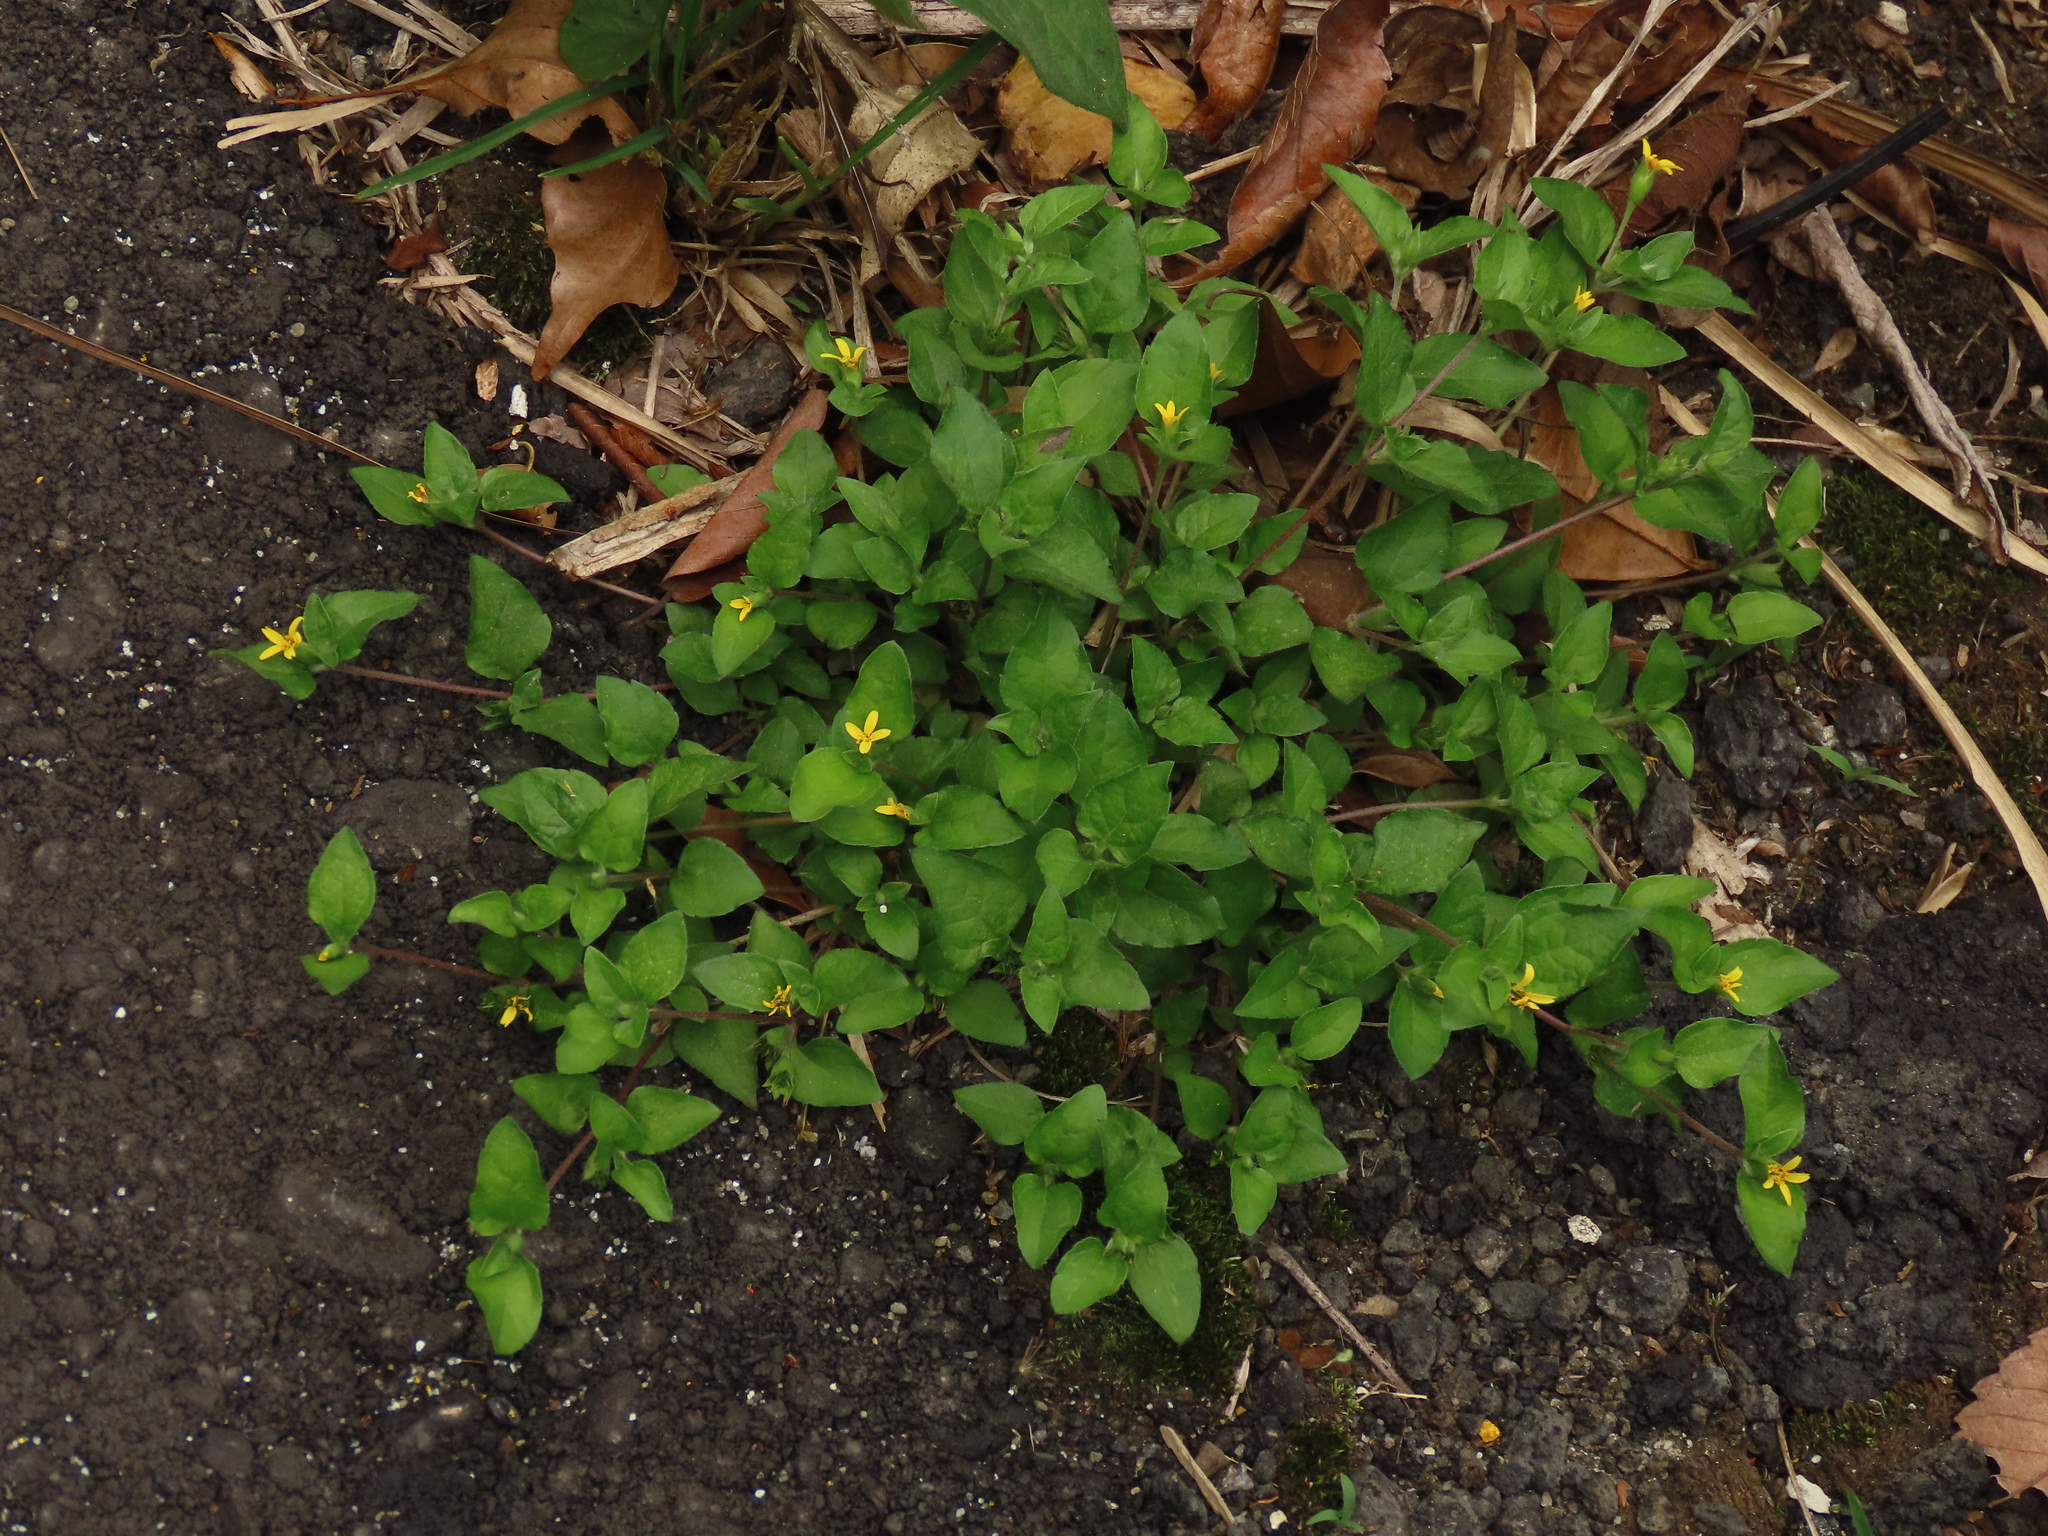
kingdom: Plantae
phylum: Tracheophyta
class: Magnoliopsida
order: Asterales
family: Asteraceae
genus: Calyptocarpus
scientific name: Calyptocarpus vialis
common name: Straggler daisy
